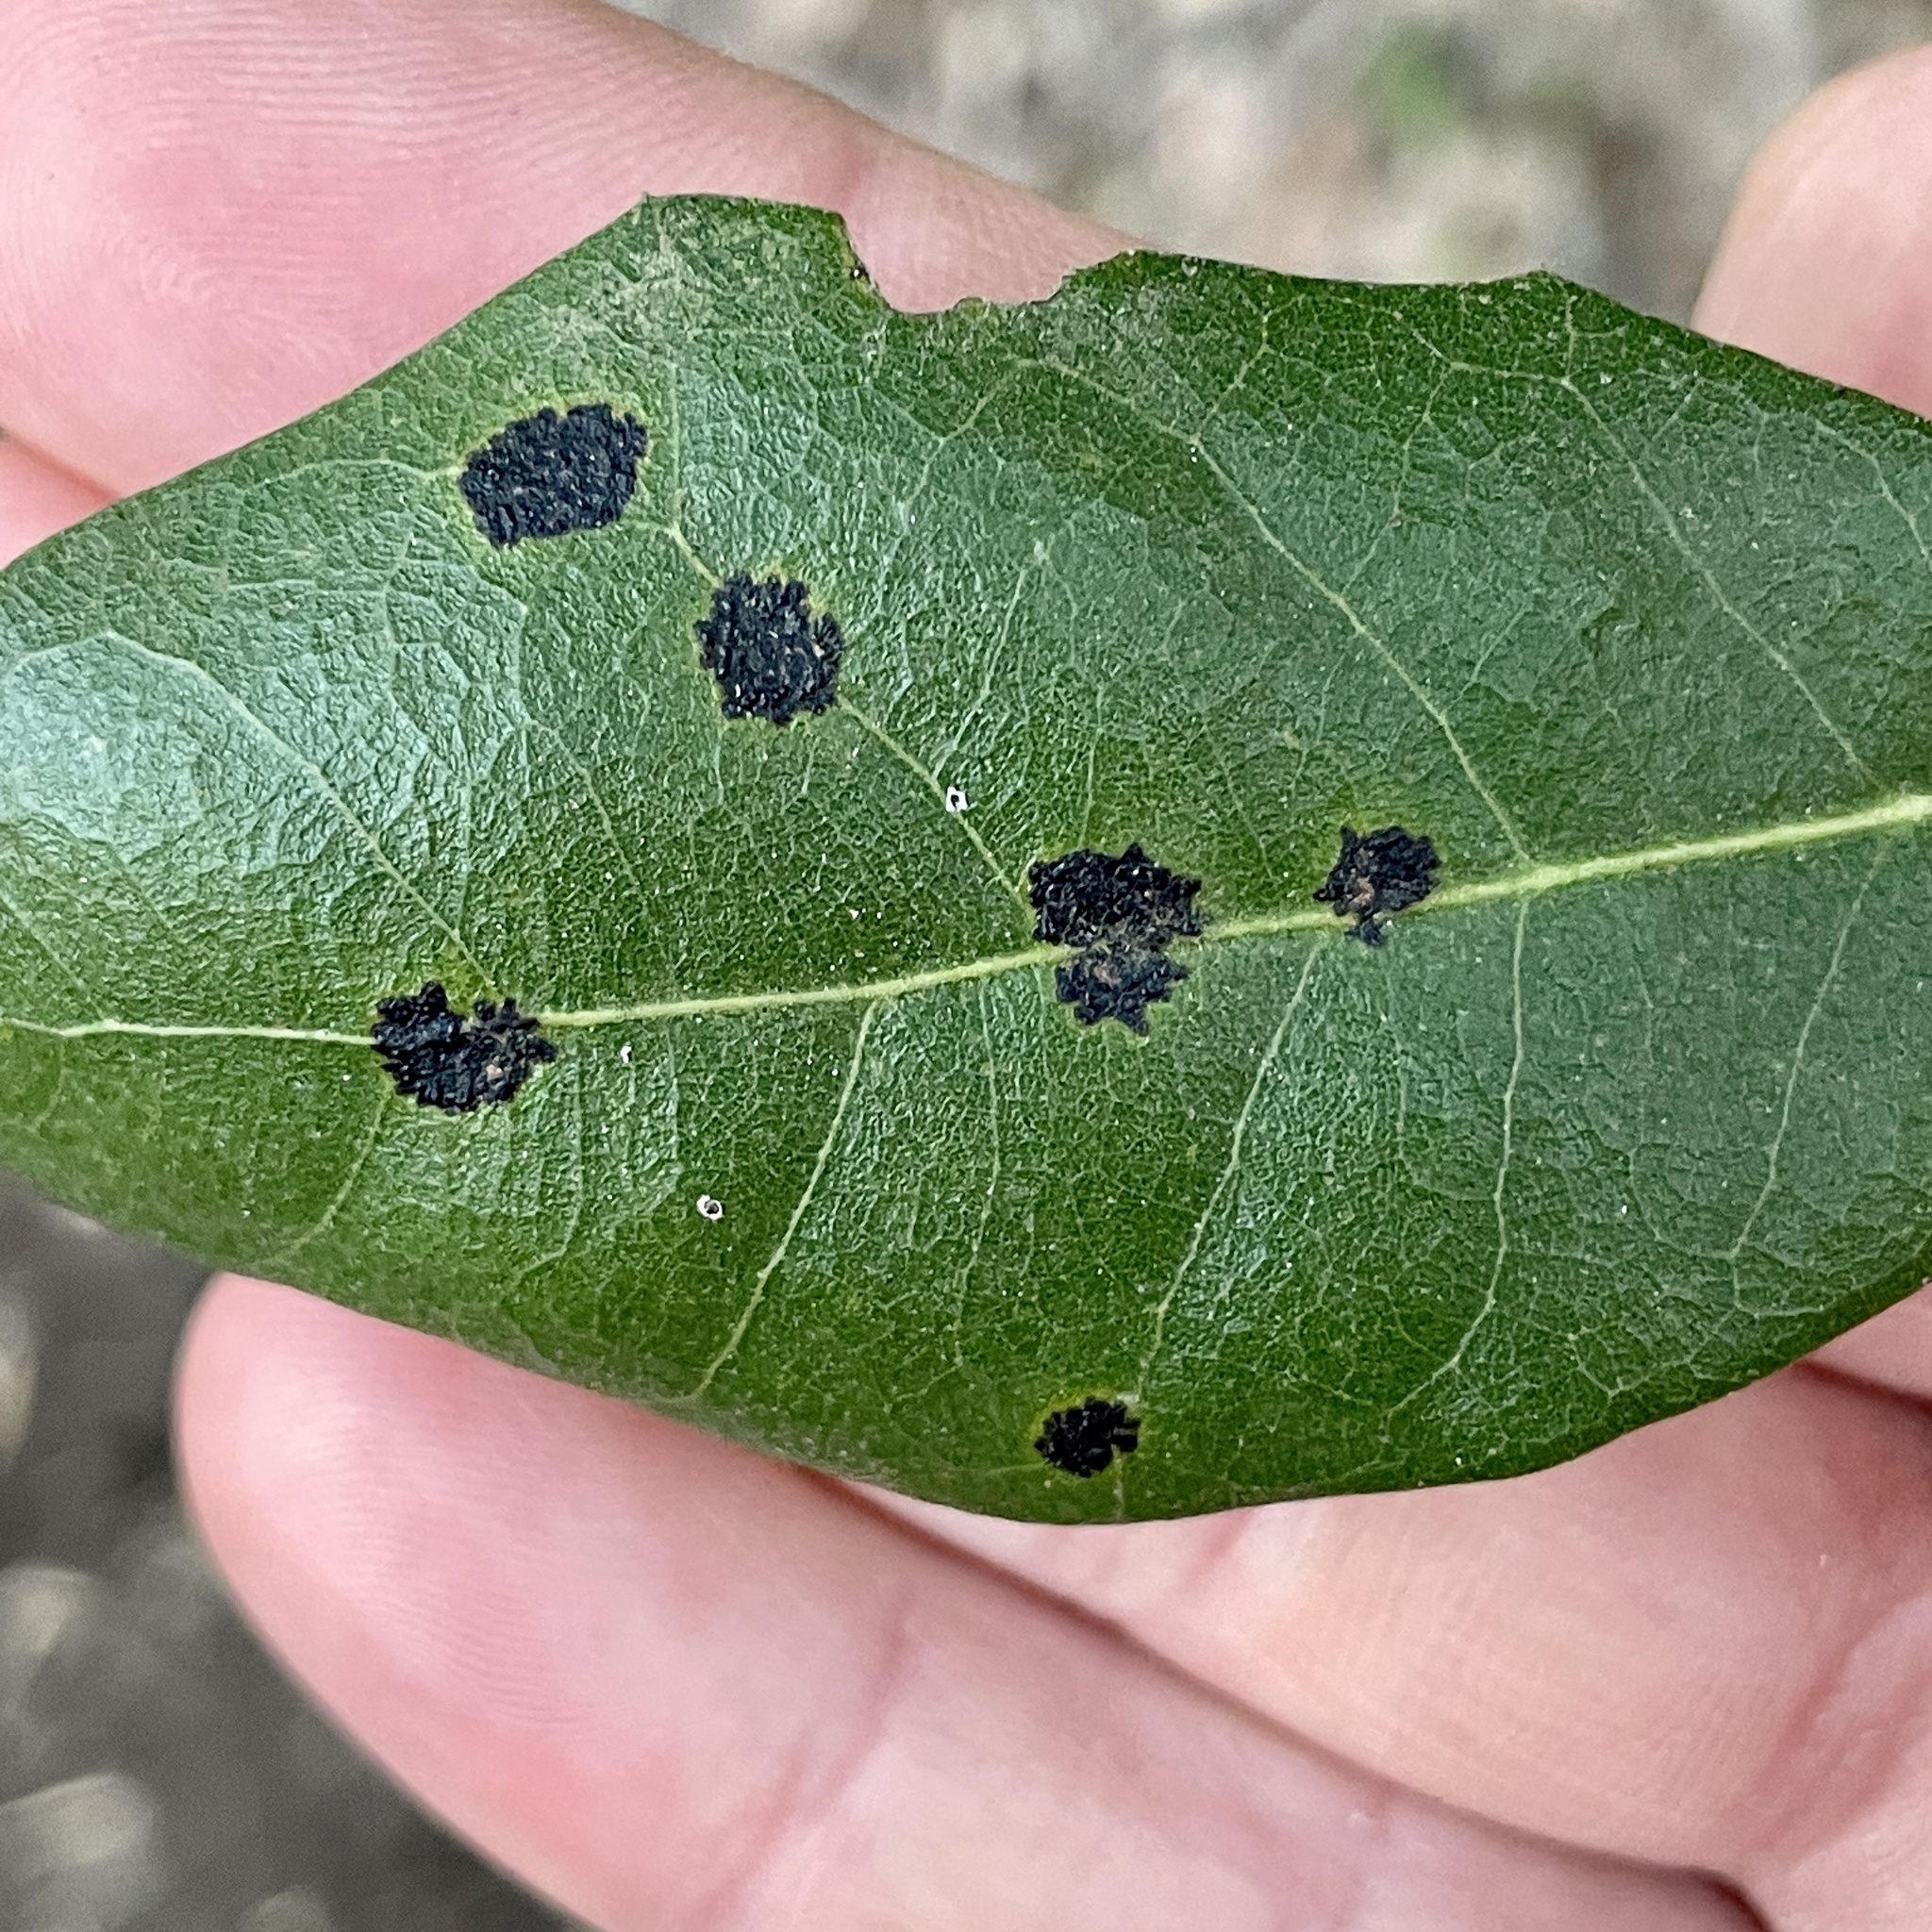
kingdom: Fungi
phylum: Ascomycota
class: Sordariomycetes
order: Phyllachorales
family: Phyllachoraceae
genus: Trabutia
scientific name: Trabutia quercina
